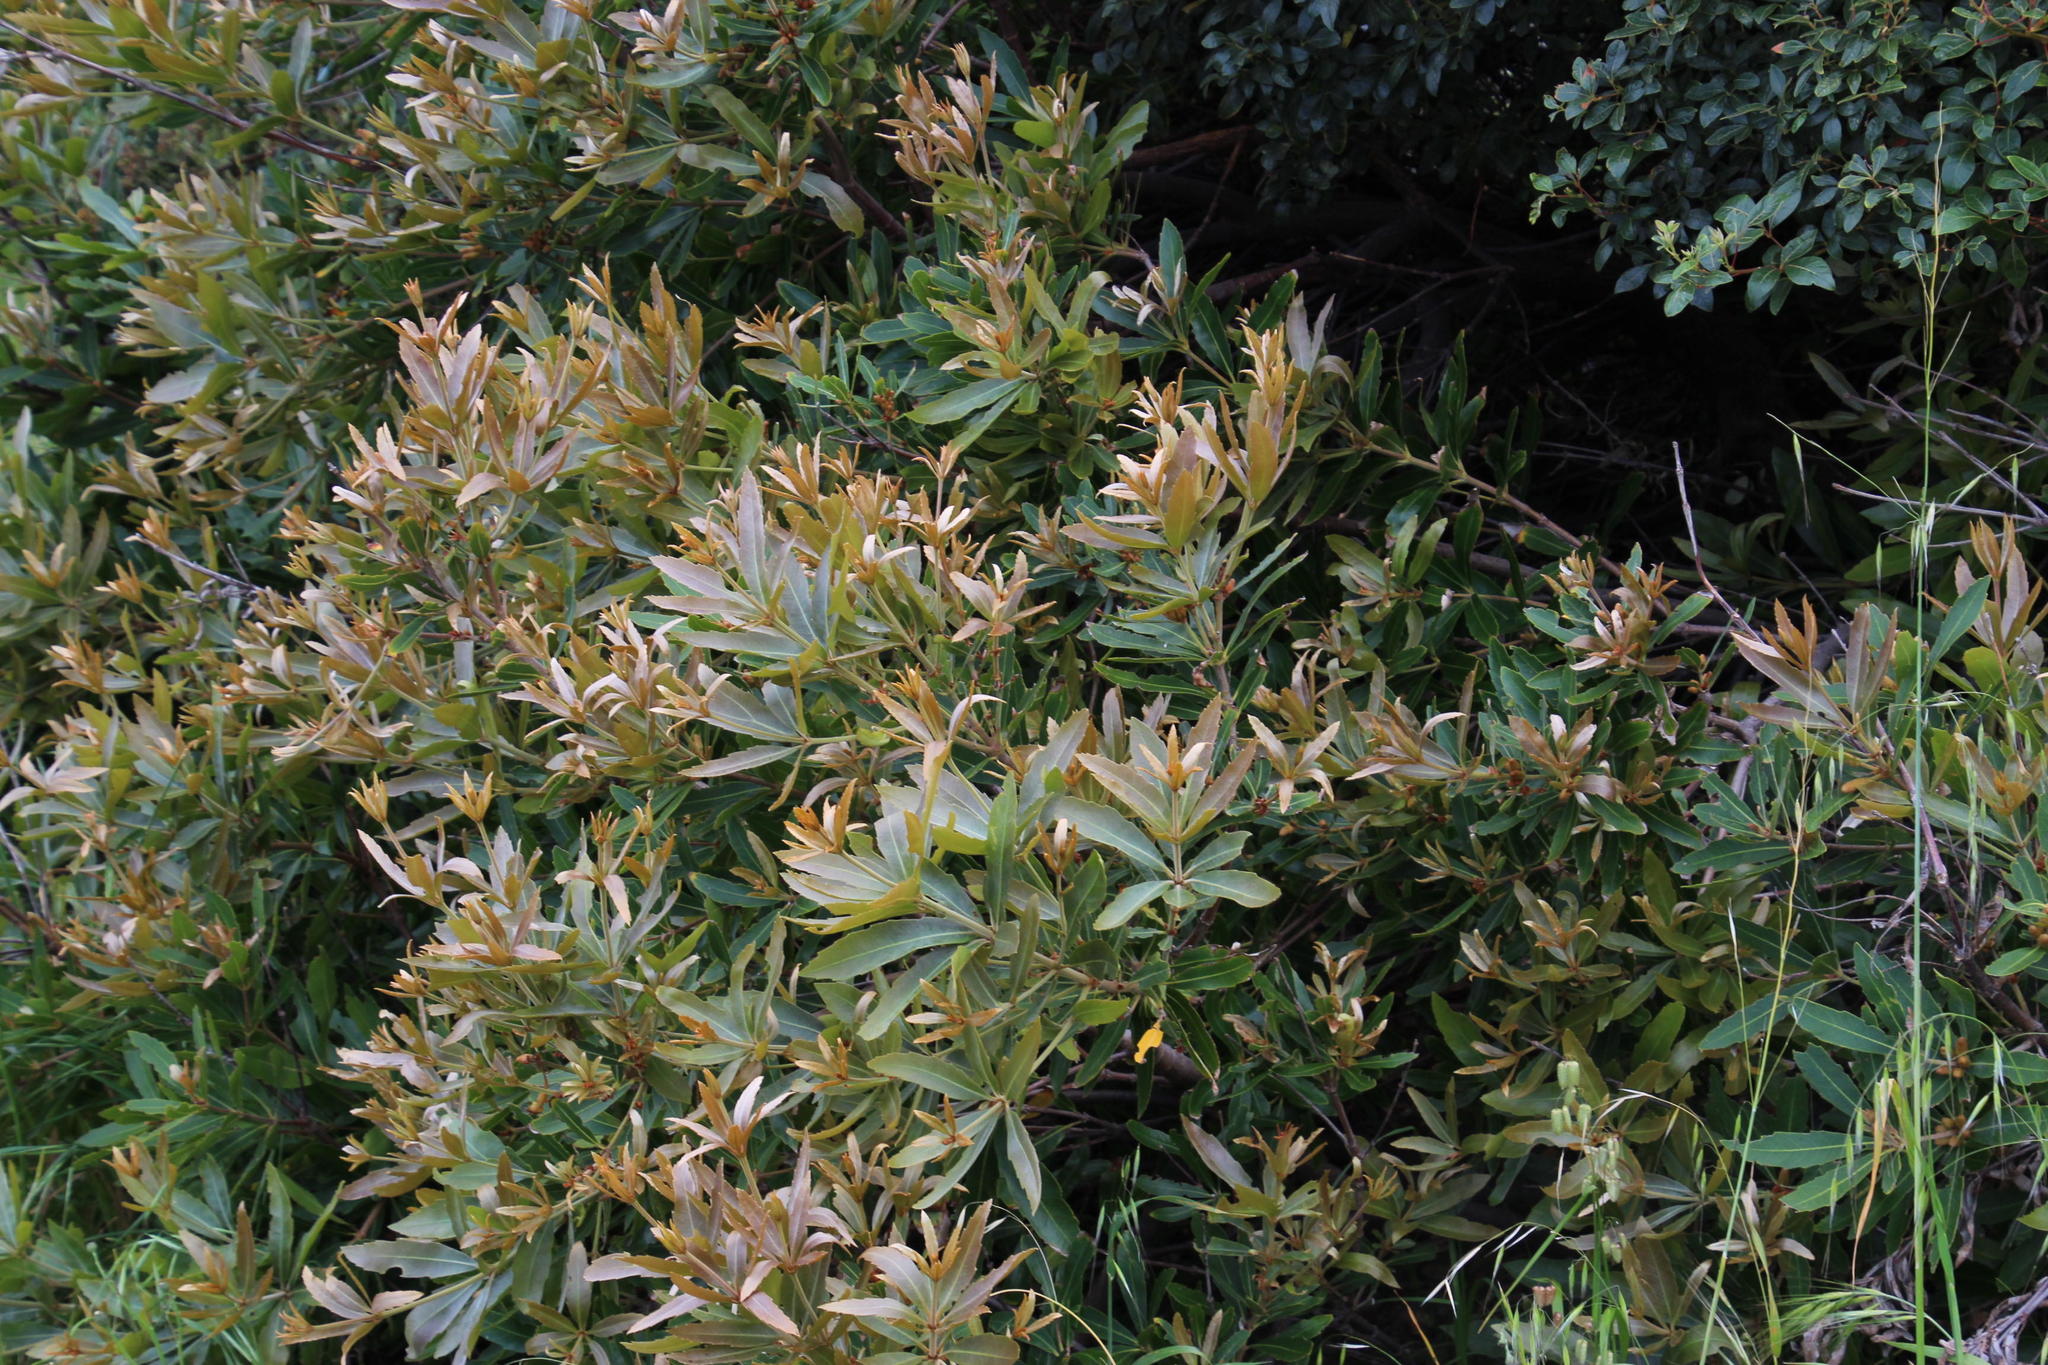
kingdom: Plantae
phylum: Tracheophyta
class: Magnoliopsida
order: Proteales
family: Proteaceae
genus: Brabejum
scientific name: Brabejum stellatifolium
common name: Wild almond
